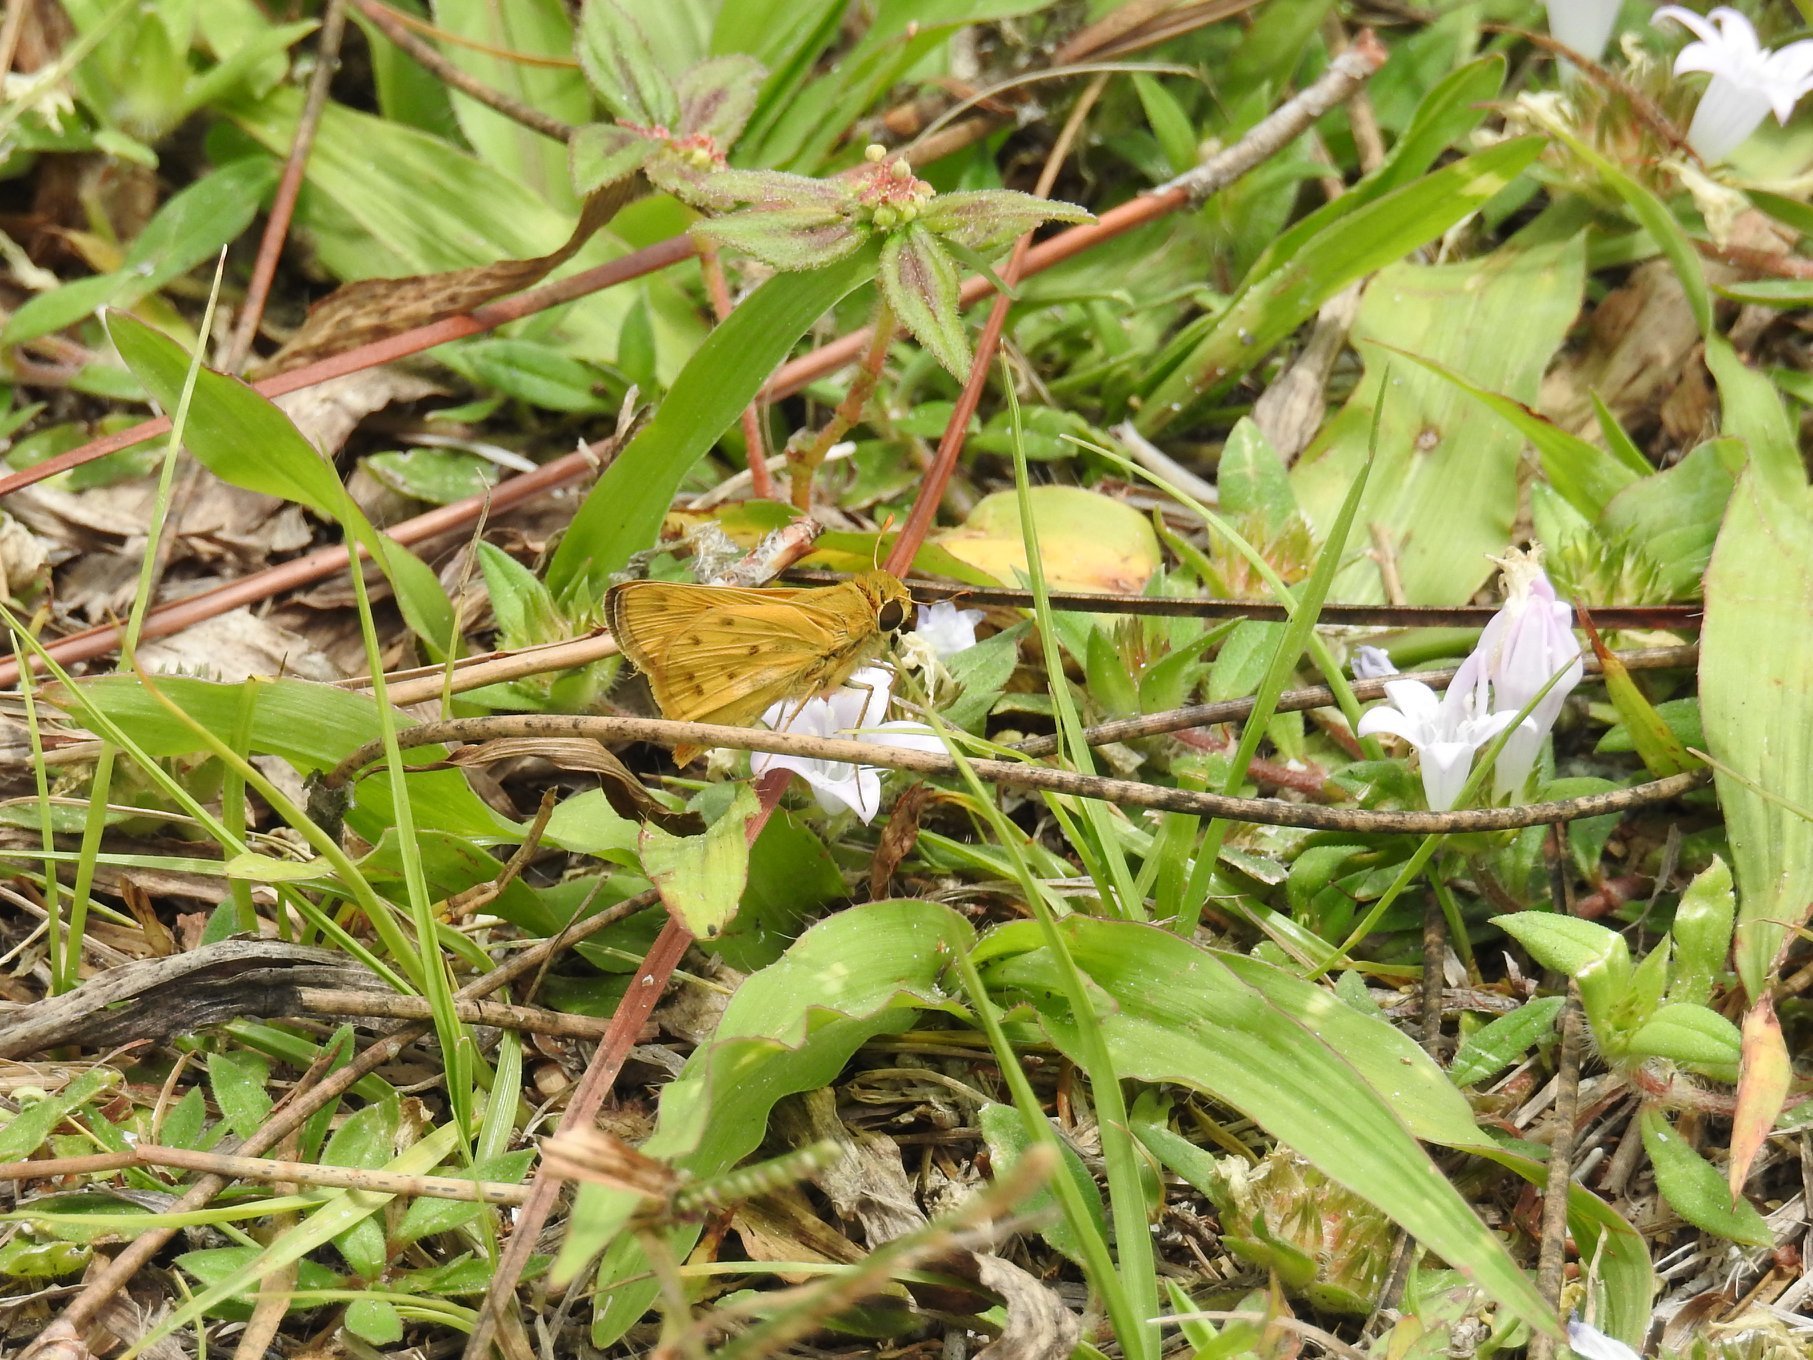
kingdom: Animalia
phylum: Arthropoda
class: Insecta
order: Lepidoptera
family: Hesperiidae
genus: Hylephila
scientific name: Hylephila phyleus
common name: Fiery skipper
